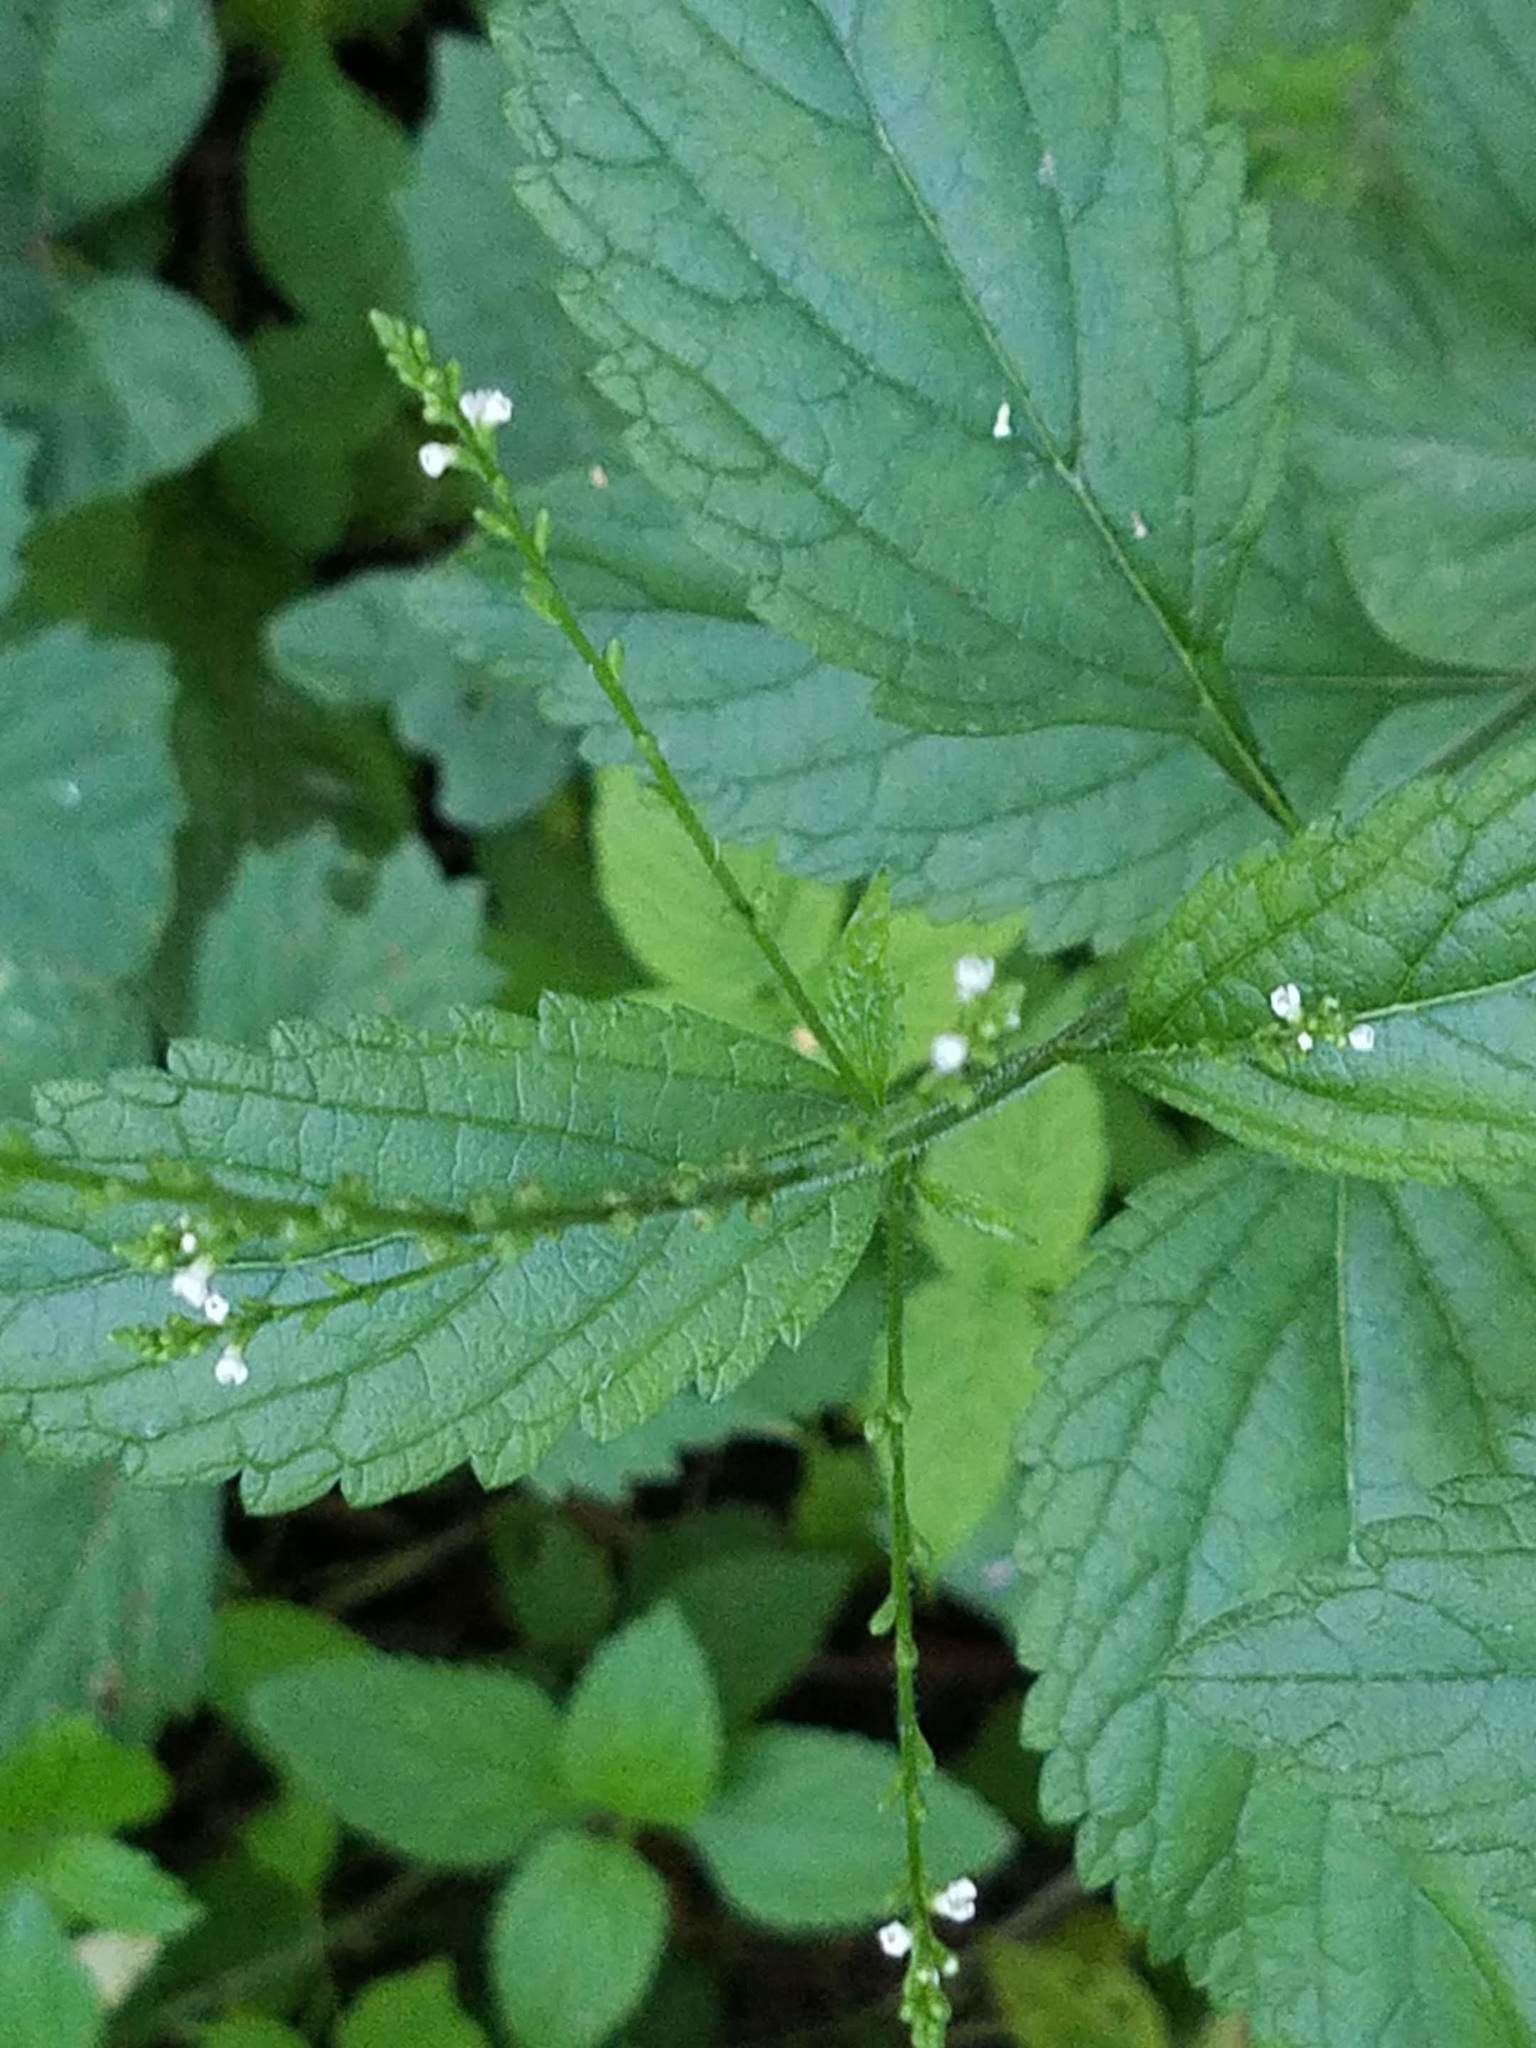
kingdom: Plantae
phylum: Tracheophyta
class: Magnoliopsida
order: Lamiales
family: Verbenaceae
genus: Verbena
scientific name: Verbena urticifolia
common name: Nettle-leaved vervain
